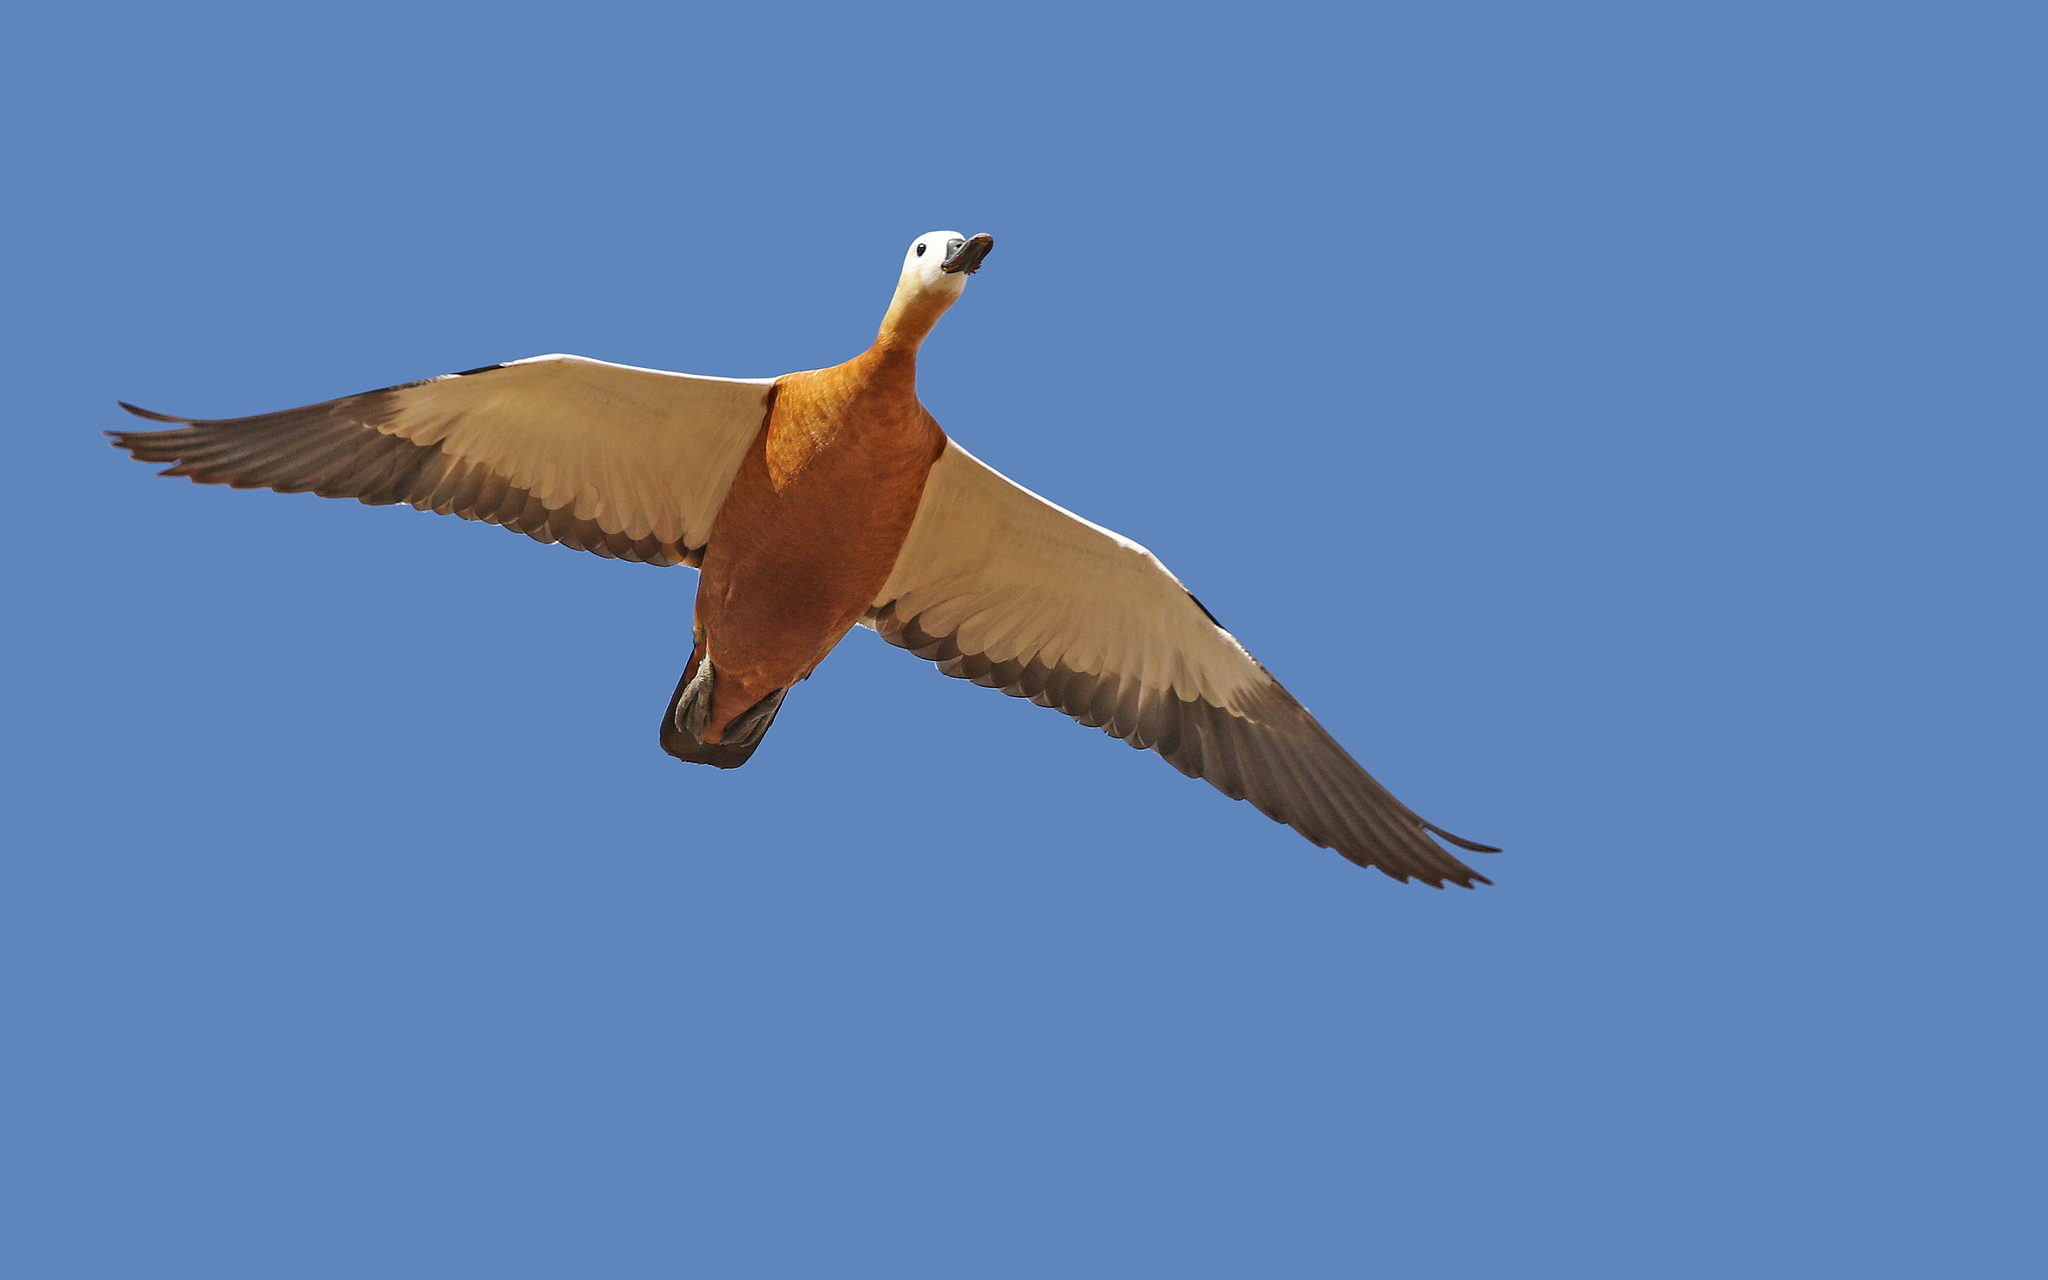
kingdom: Animalia
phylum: Chordata
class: Aves
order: Anseriformes
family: Anatidae
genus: Tadorna
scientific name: Tadorna ferruginea
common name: Ruddy shelduck
